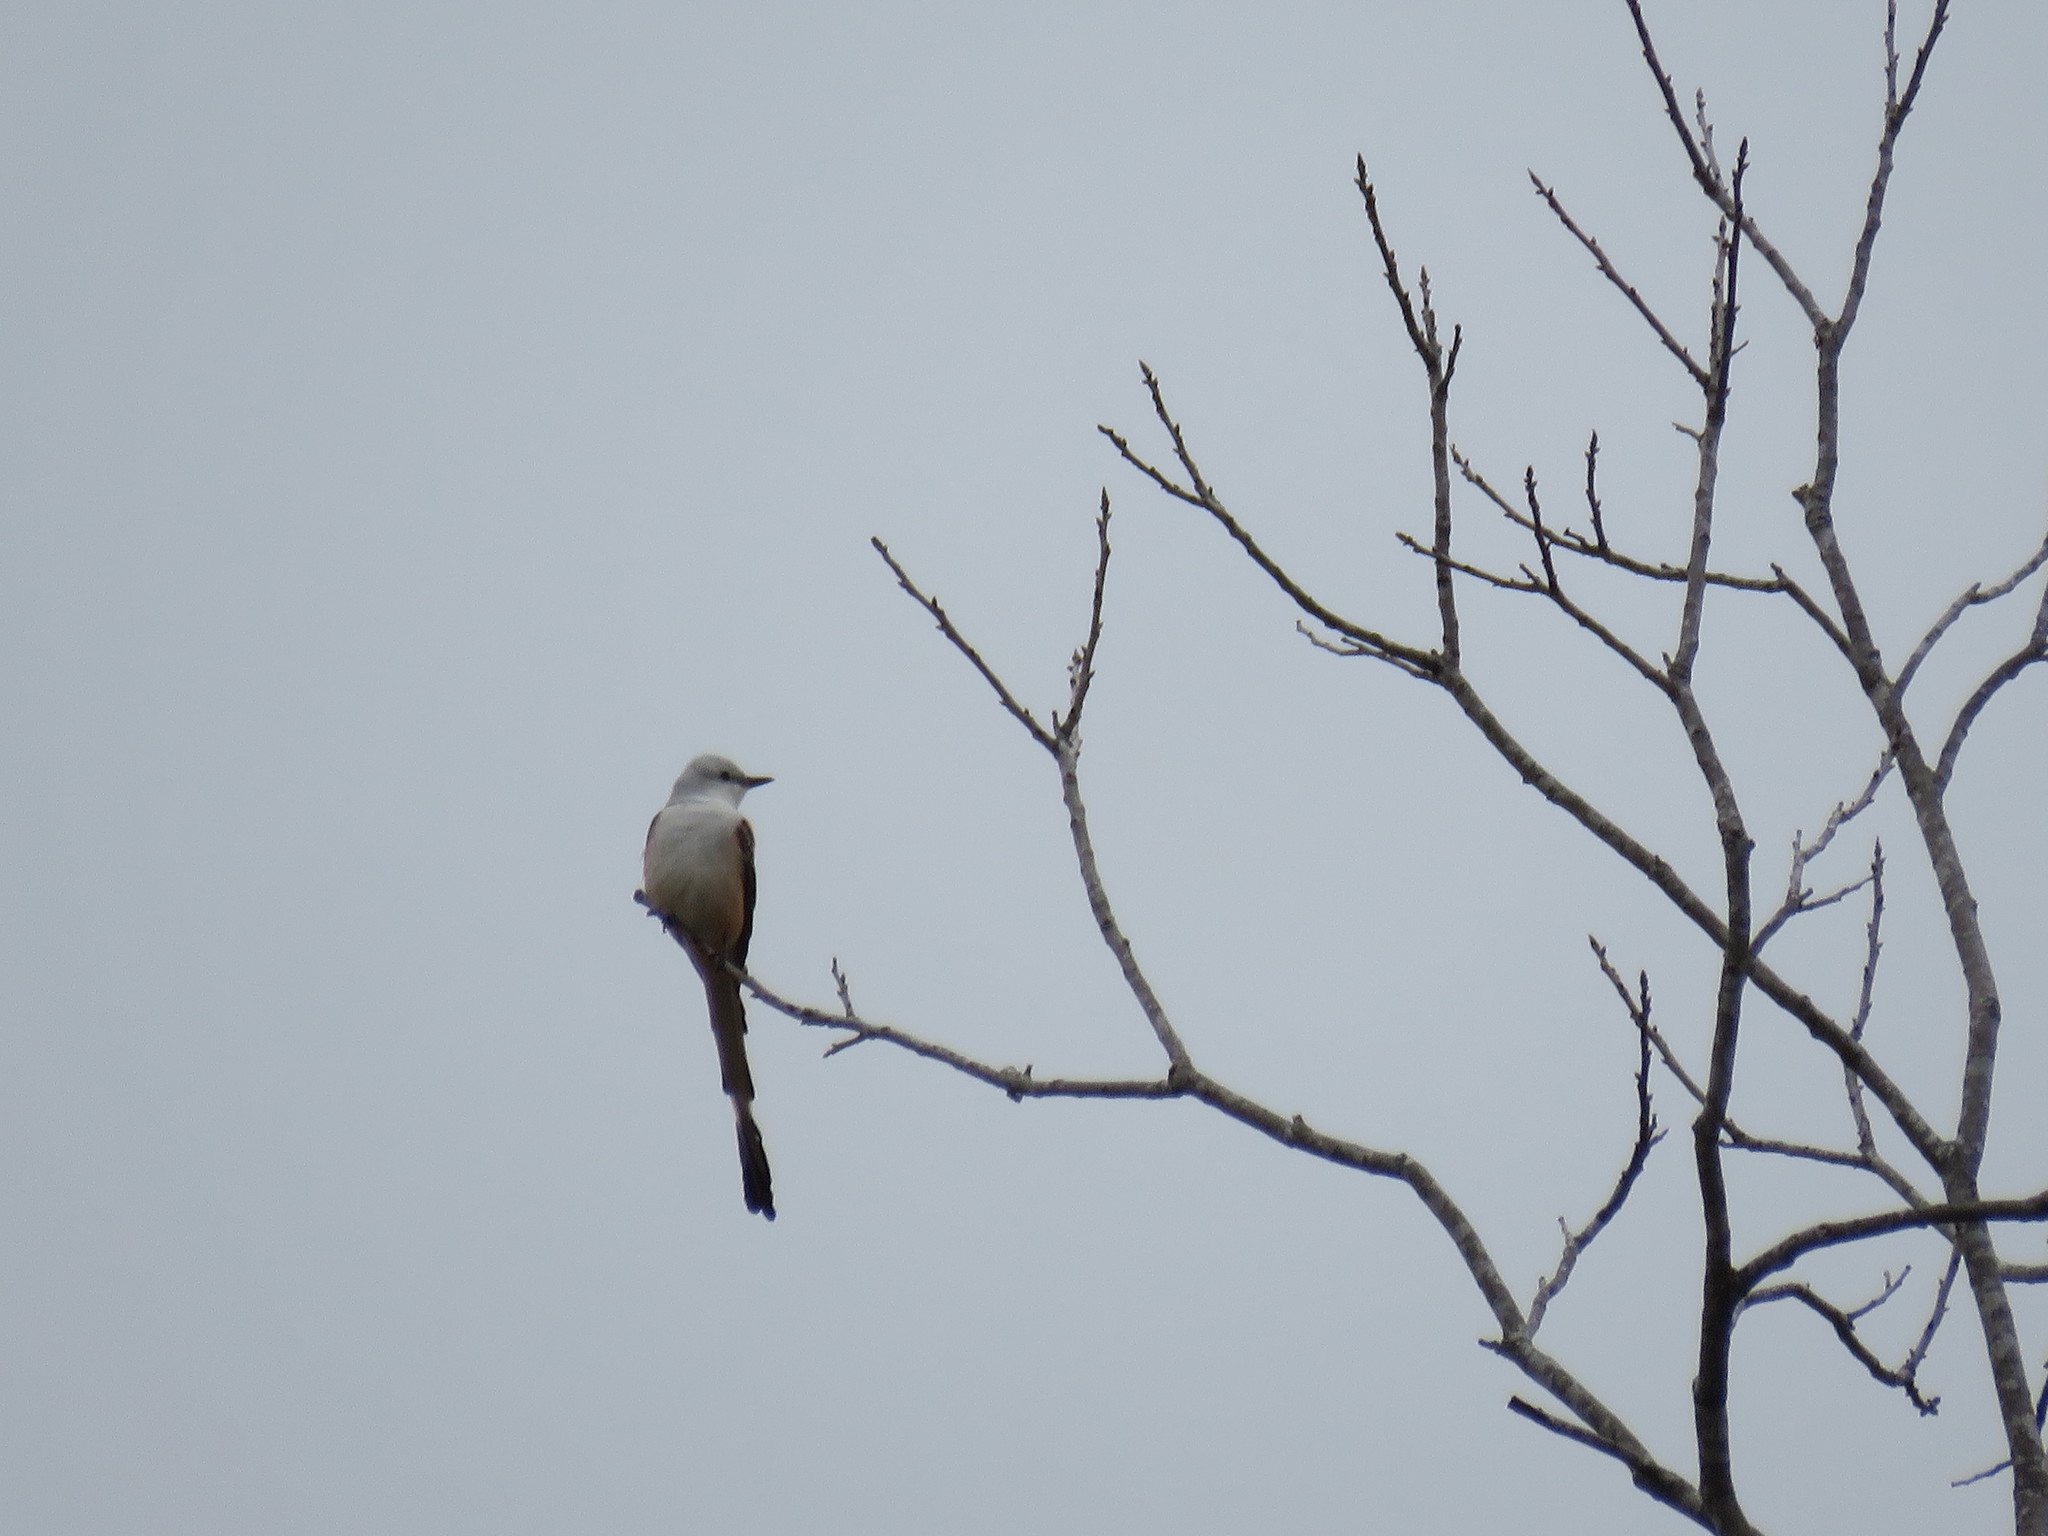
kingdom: Animalia
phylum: Chordata
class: Aves
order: Passeriformes
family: Tyrannidae
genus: Tyrannus
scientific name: Tyrannus forficatus
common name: Scissor-tailed flycatcher
